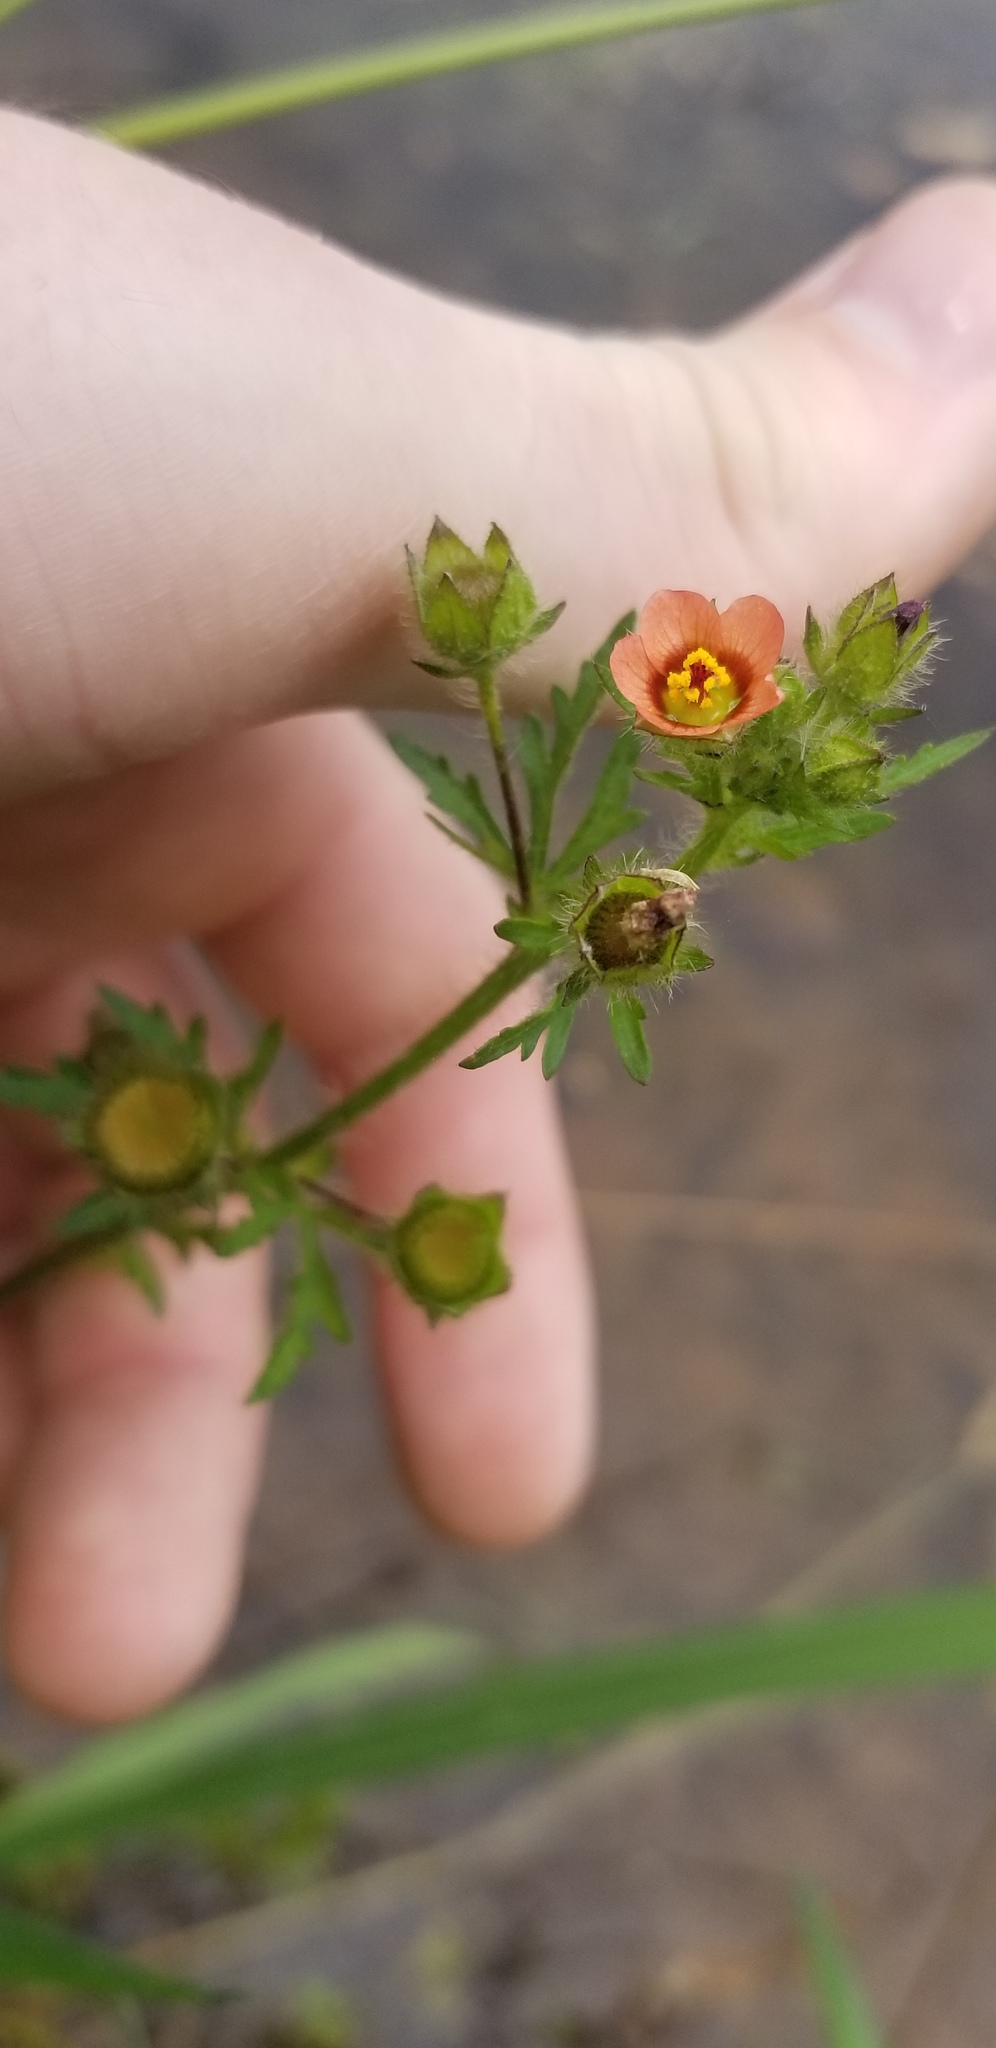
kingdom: Plantae
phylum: Tracheophyta
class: Magnoliopsida
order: Malvales
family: Malvaceae
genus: Modiola
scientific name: Modiola caroliniana
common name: Carolina bristlemallow
